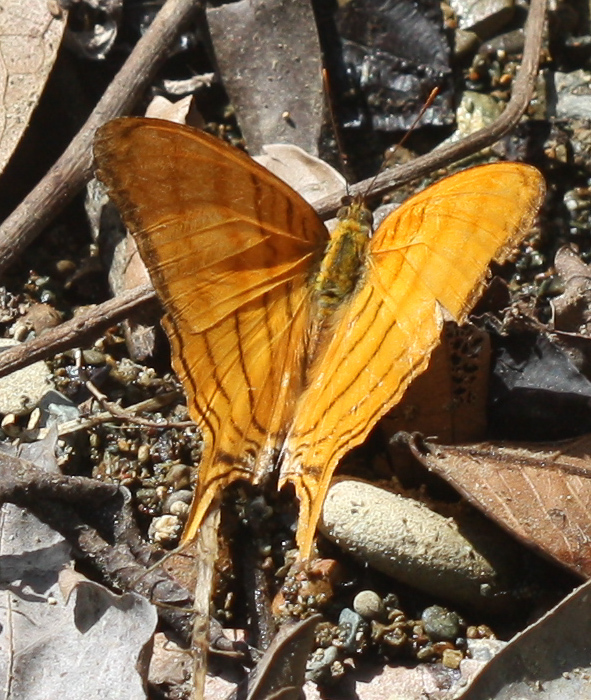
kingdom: Animalia
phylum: Arthropoda
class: Insecta
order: Lepidoptera
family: Nymphalidae
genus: Marpesia
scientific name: Marpesia berania
